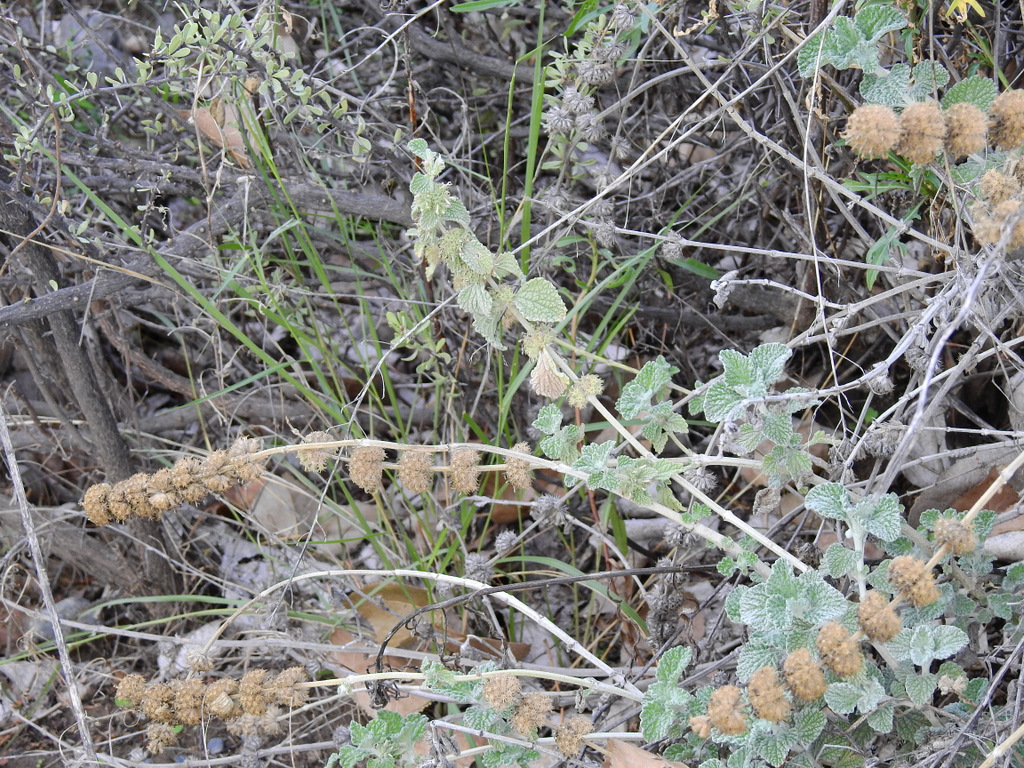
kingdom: Plantae
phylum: Tracheophyta
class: Magnoliopsida
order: Lamiales
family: Lamiaceae
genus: Marrubium
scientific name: Marrubium vulgare
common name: Horehound
